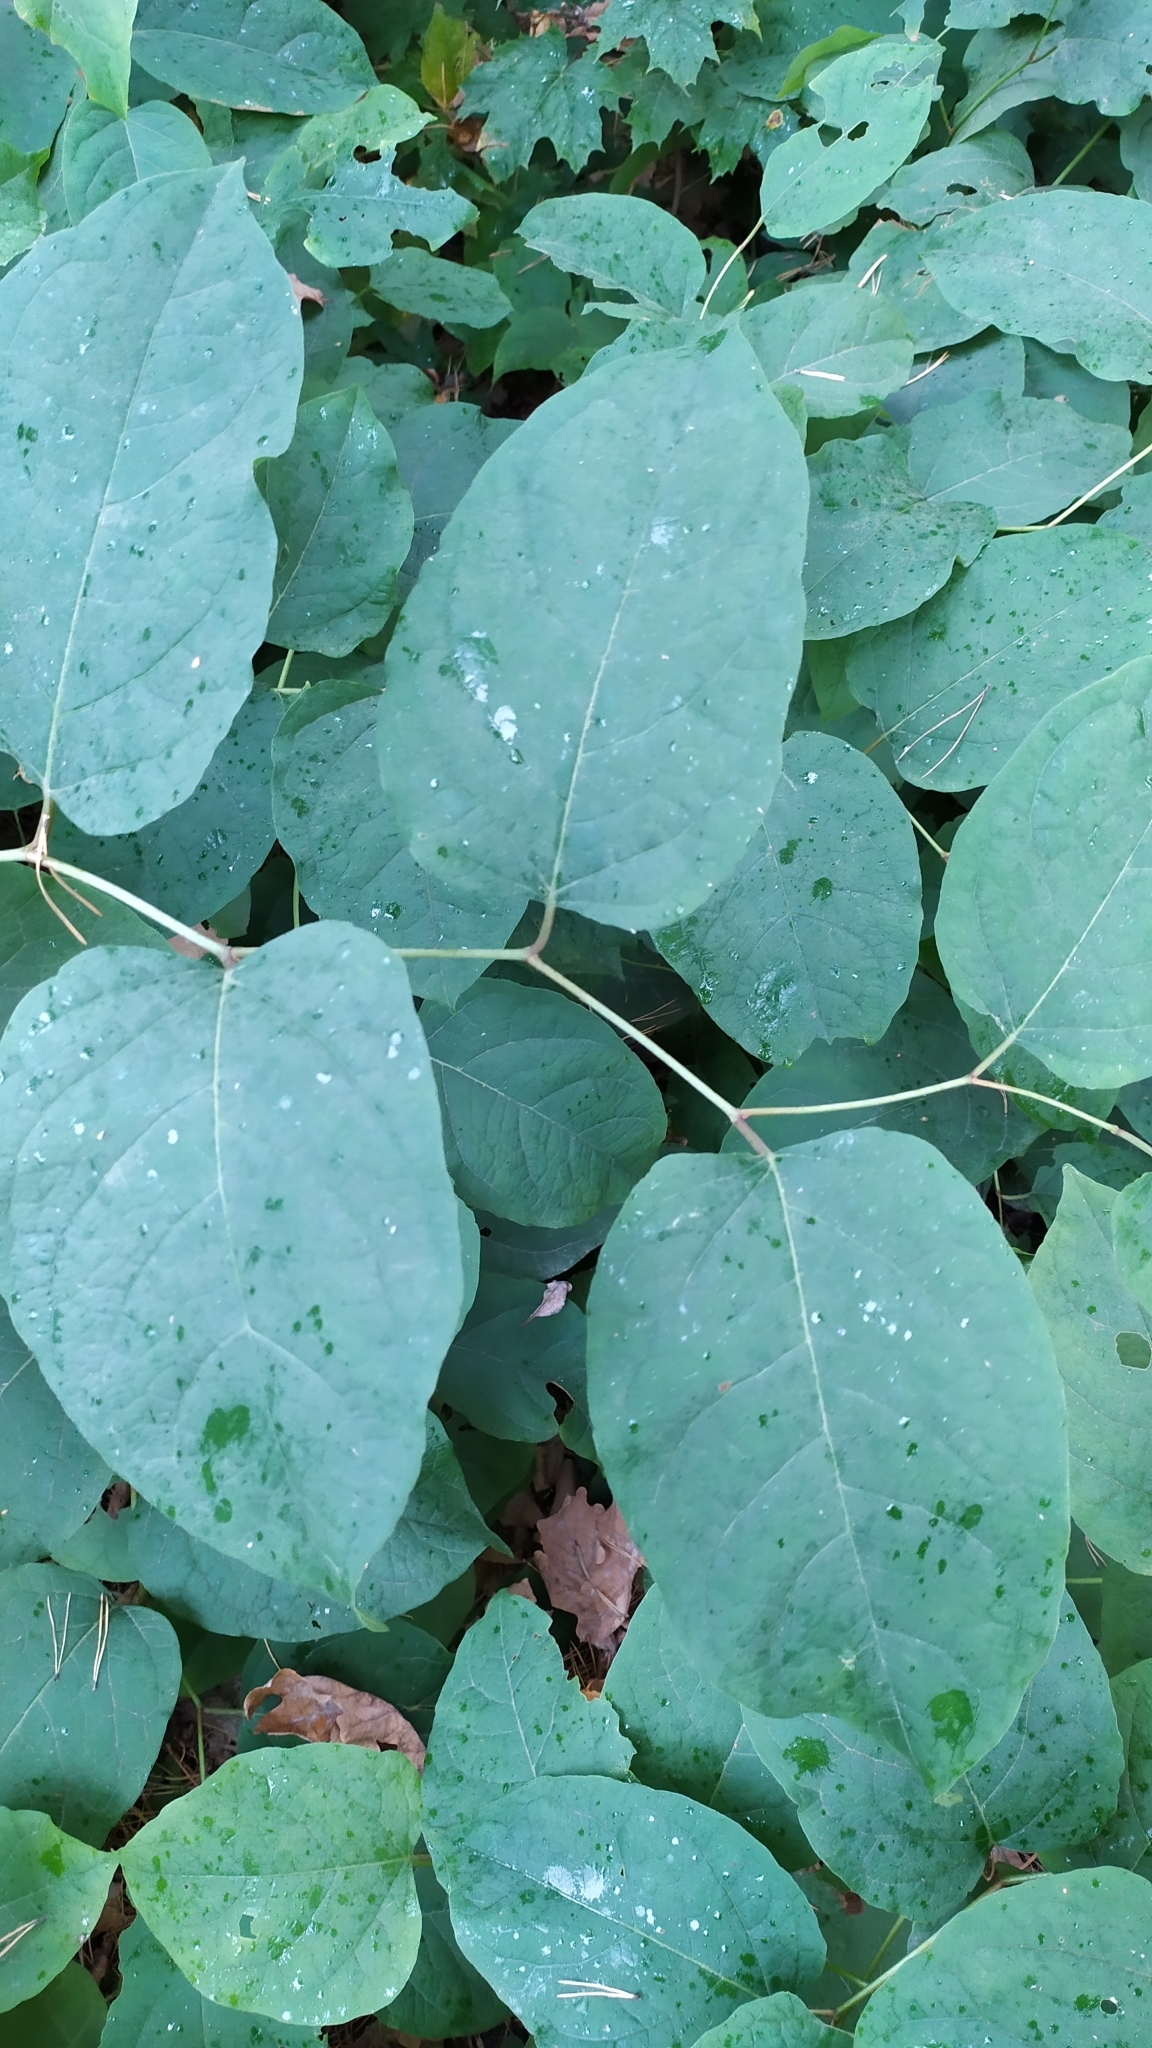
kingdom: Plantae
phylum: Tracheophyta
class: Magnoliopsida
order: Caryophyllales
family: Polygonaceae
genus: Reynoutria
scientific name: Reynoutria bohemica
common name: Bohemian knotweed
